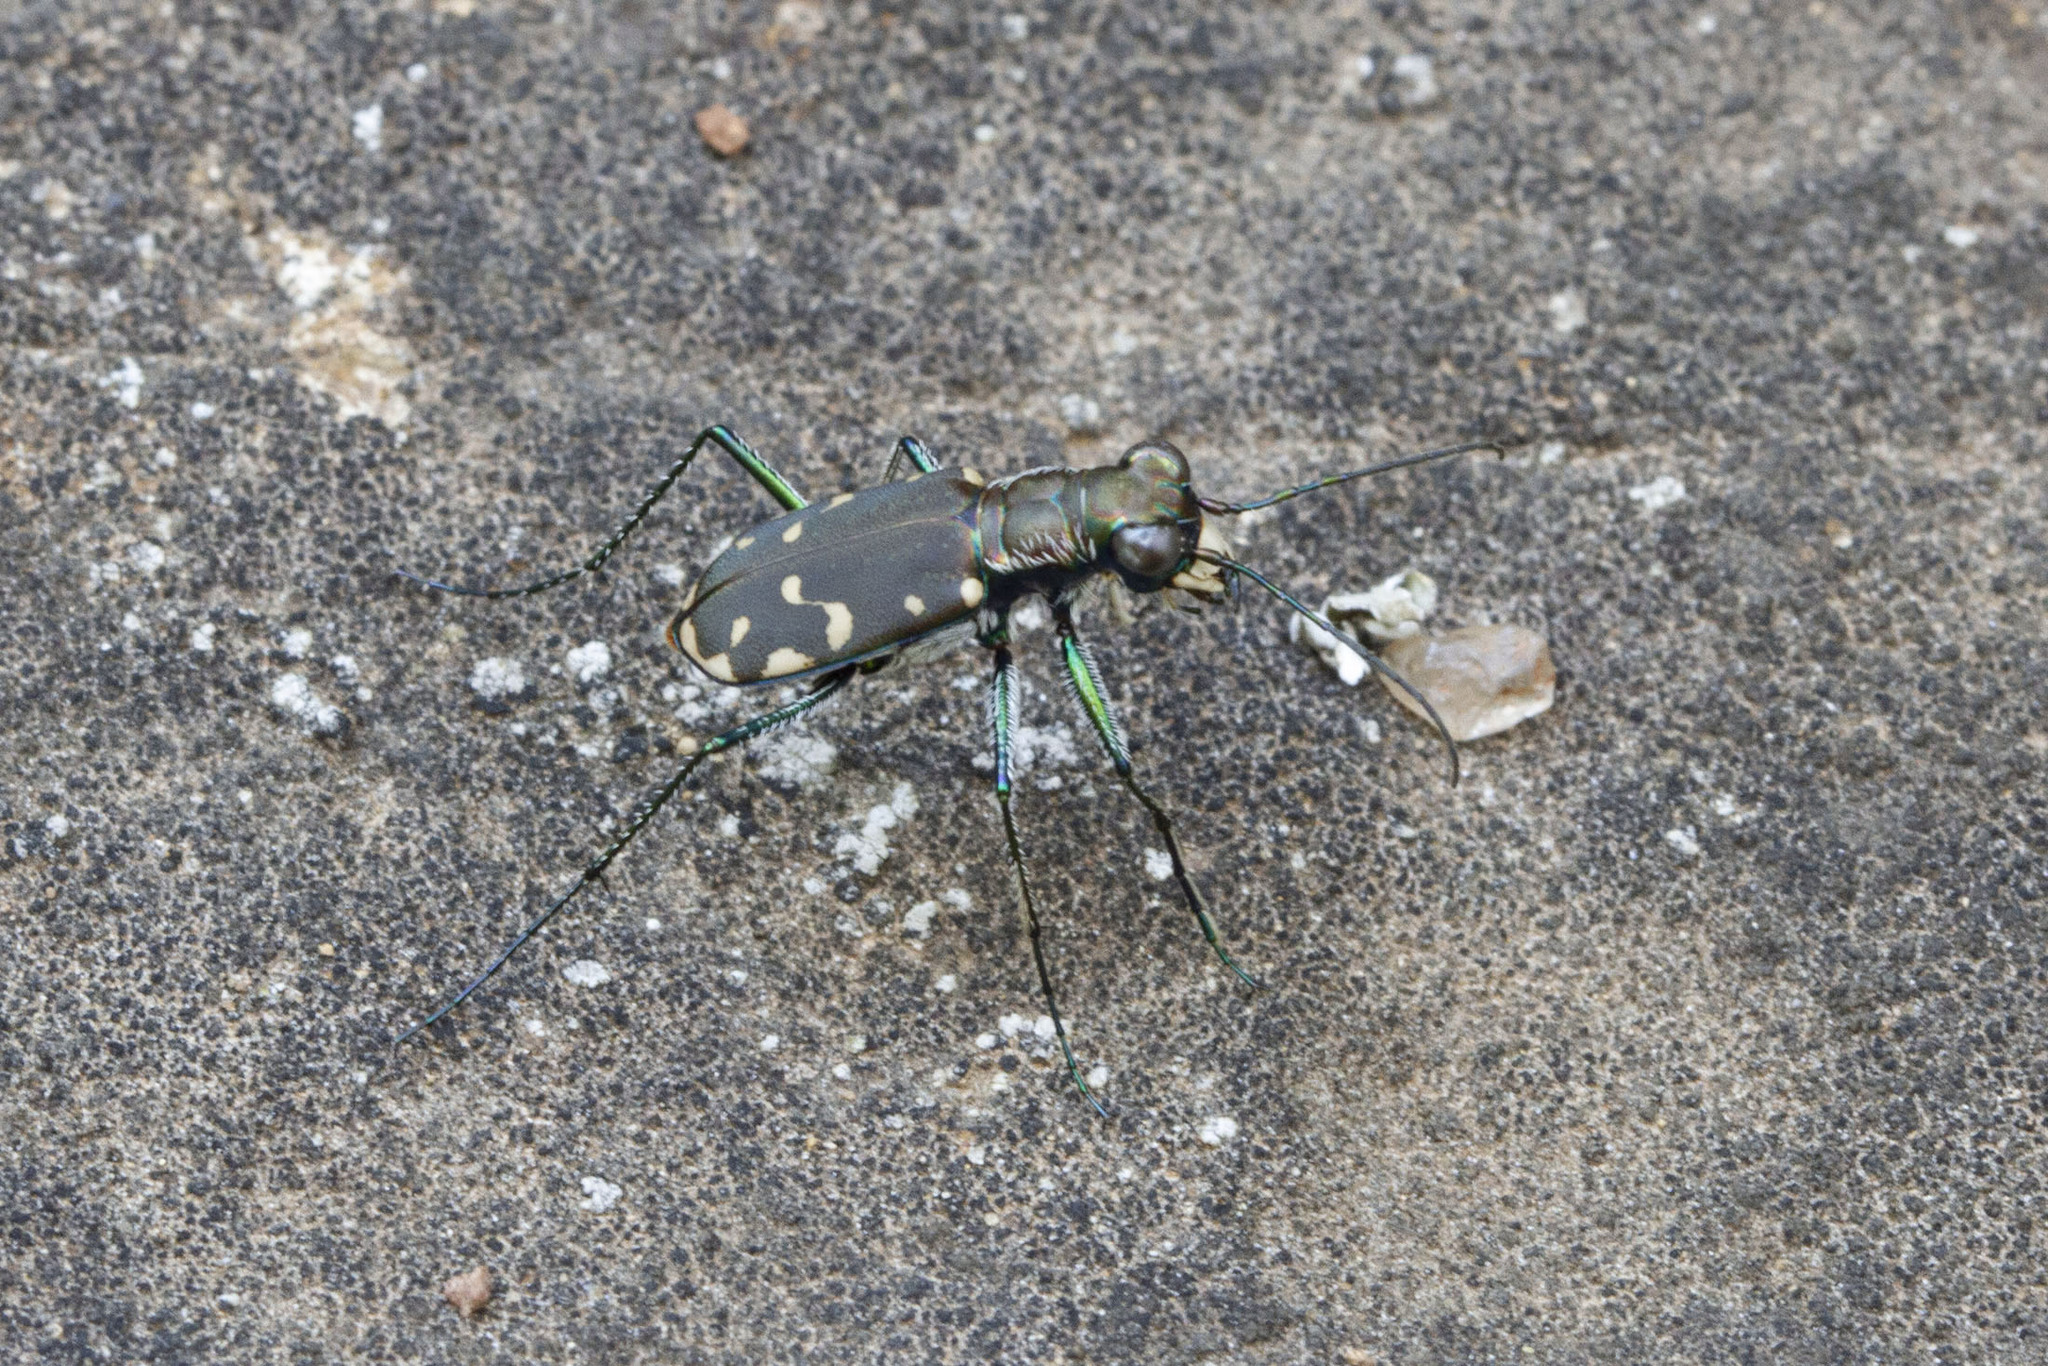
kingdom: Animalia
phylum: Arthropoda
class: Insecta
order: Coleoptera
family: Carabidae
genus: Cicindela
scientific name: Cicindela rufiventris
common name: Eastern red-bellied tiger beetle
